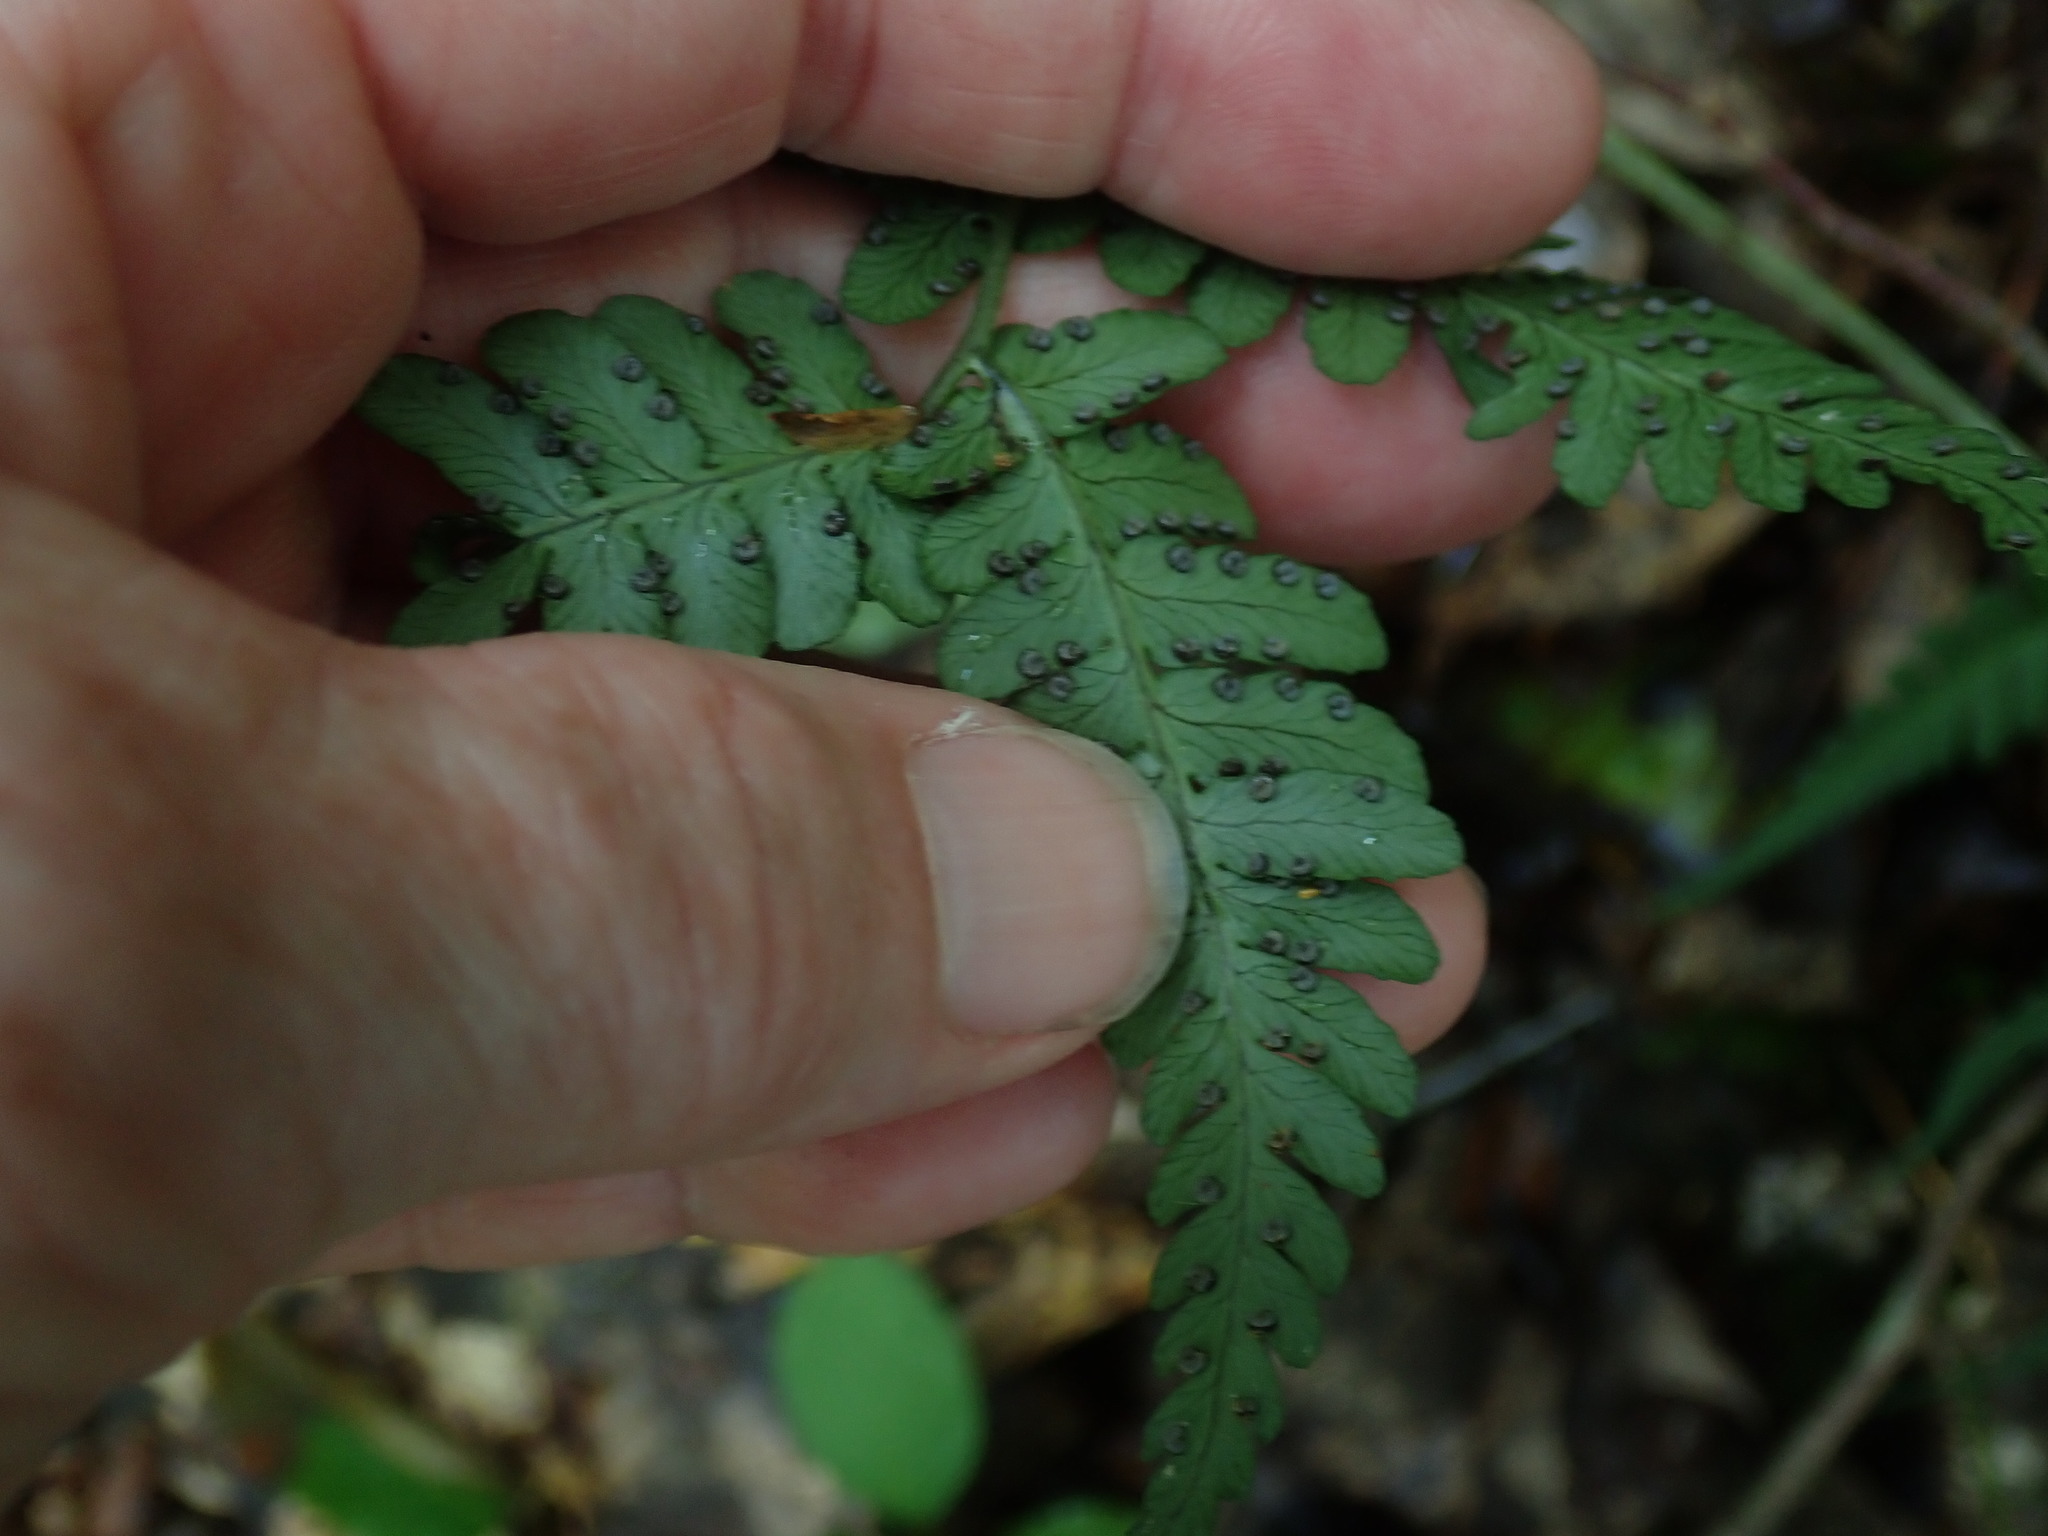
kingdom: Plantae
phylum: Tracheophyta
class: Polypodiopsida
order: Polypodiales
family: Dryopteridaceae
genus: Dryopteris
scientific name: Dryopteris marginalis
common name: Marginal wood fern
